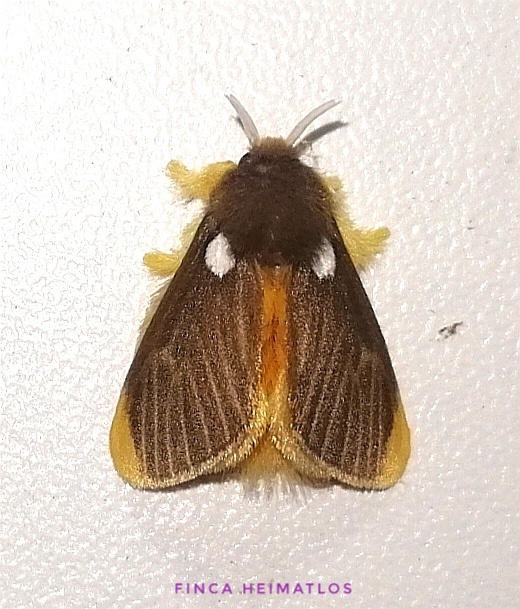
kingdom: Animalia
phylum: Arthropoda
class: Insecta
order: Lepidoptera
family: Megalopygidae
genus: Megalopyge
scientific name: Megalopyge basalis
